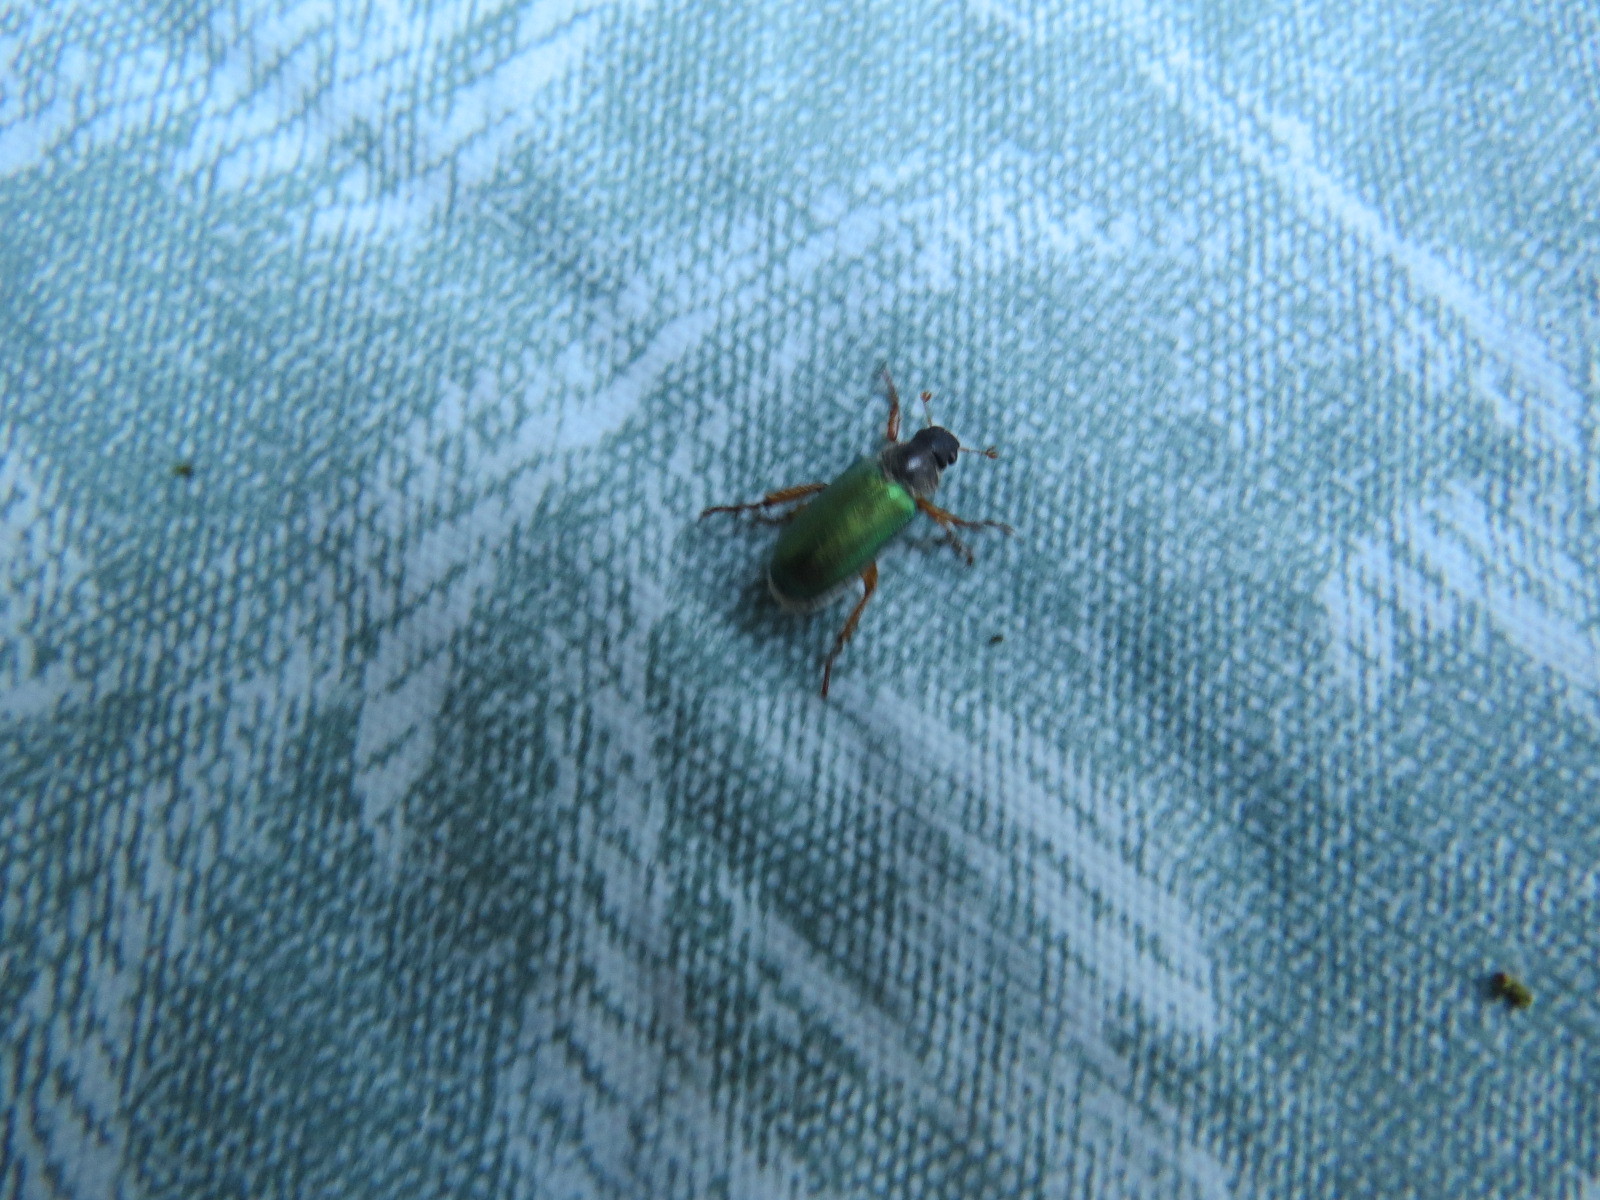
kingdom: Animalia
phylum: Arthropoda
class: Insecta
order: Coleoptera
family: Scarabaeidae
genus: Dichelonyx
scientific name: Dichelonyx backii
